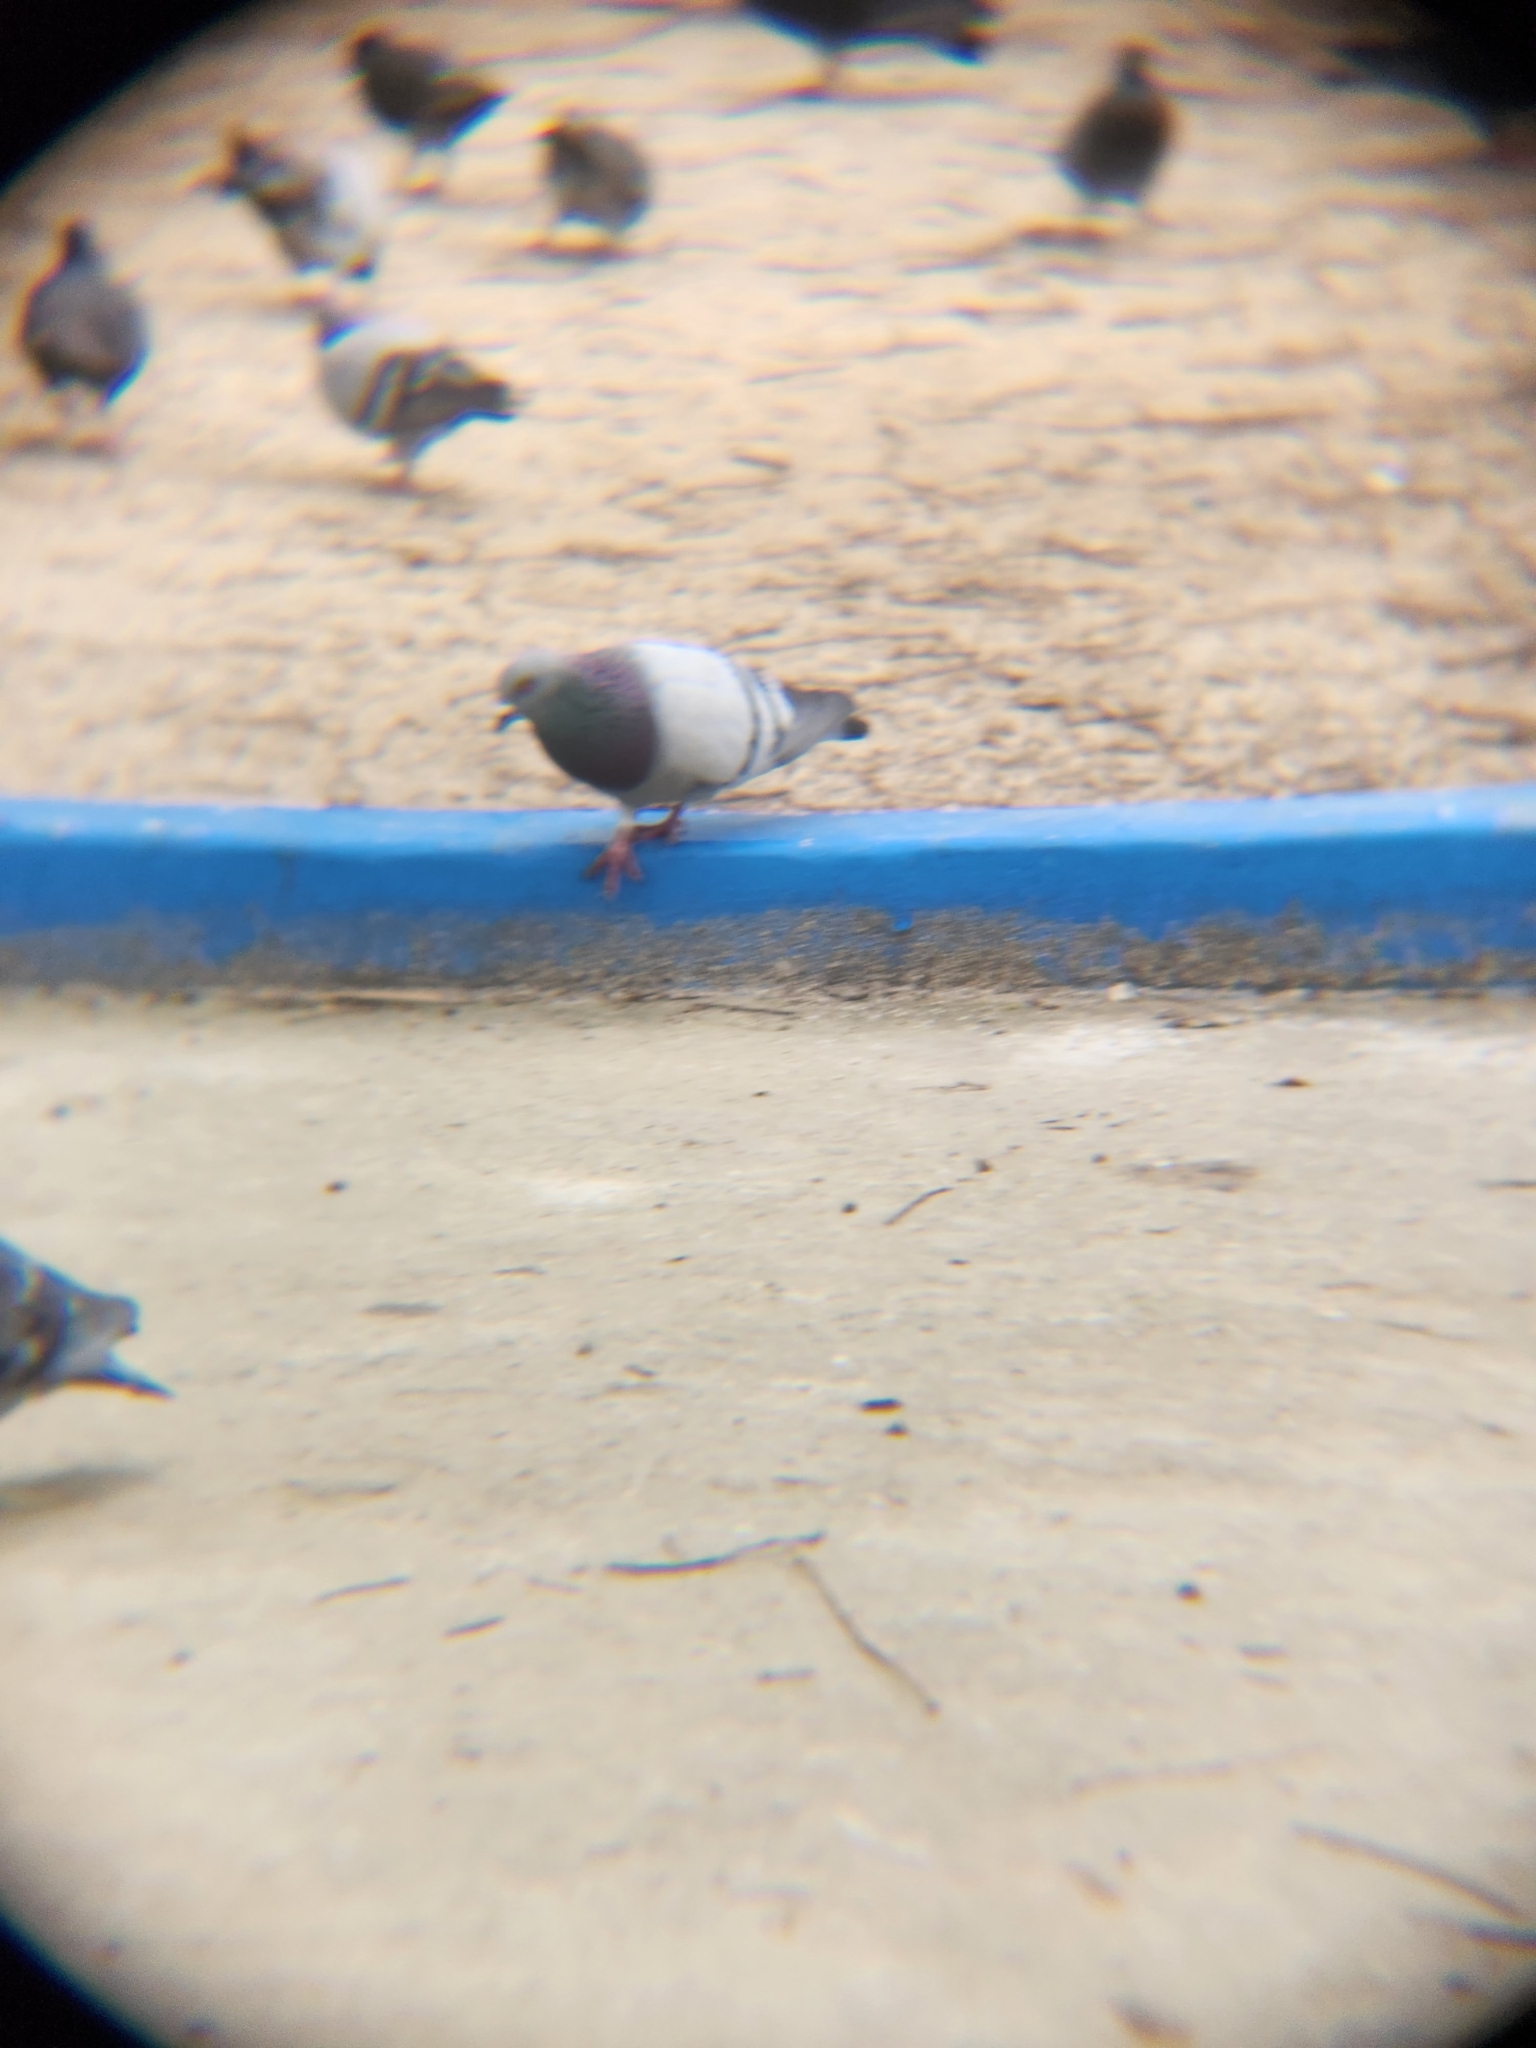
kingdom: Animalia
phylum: Chordata
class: Aves
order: Columbiformes
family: Columbidae
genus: Columba
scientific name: Columba livia
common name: Rock pigeon
